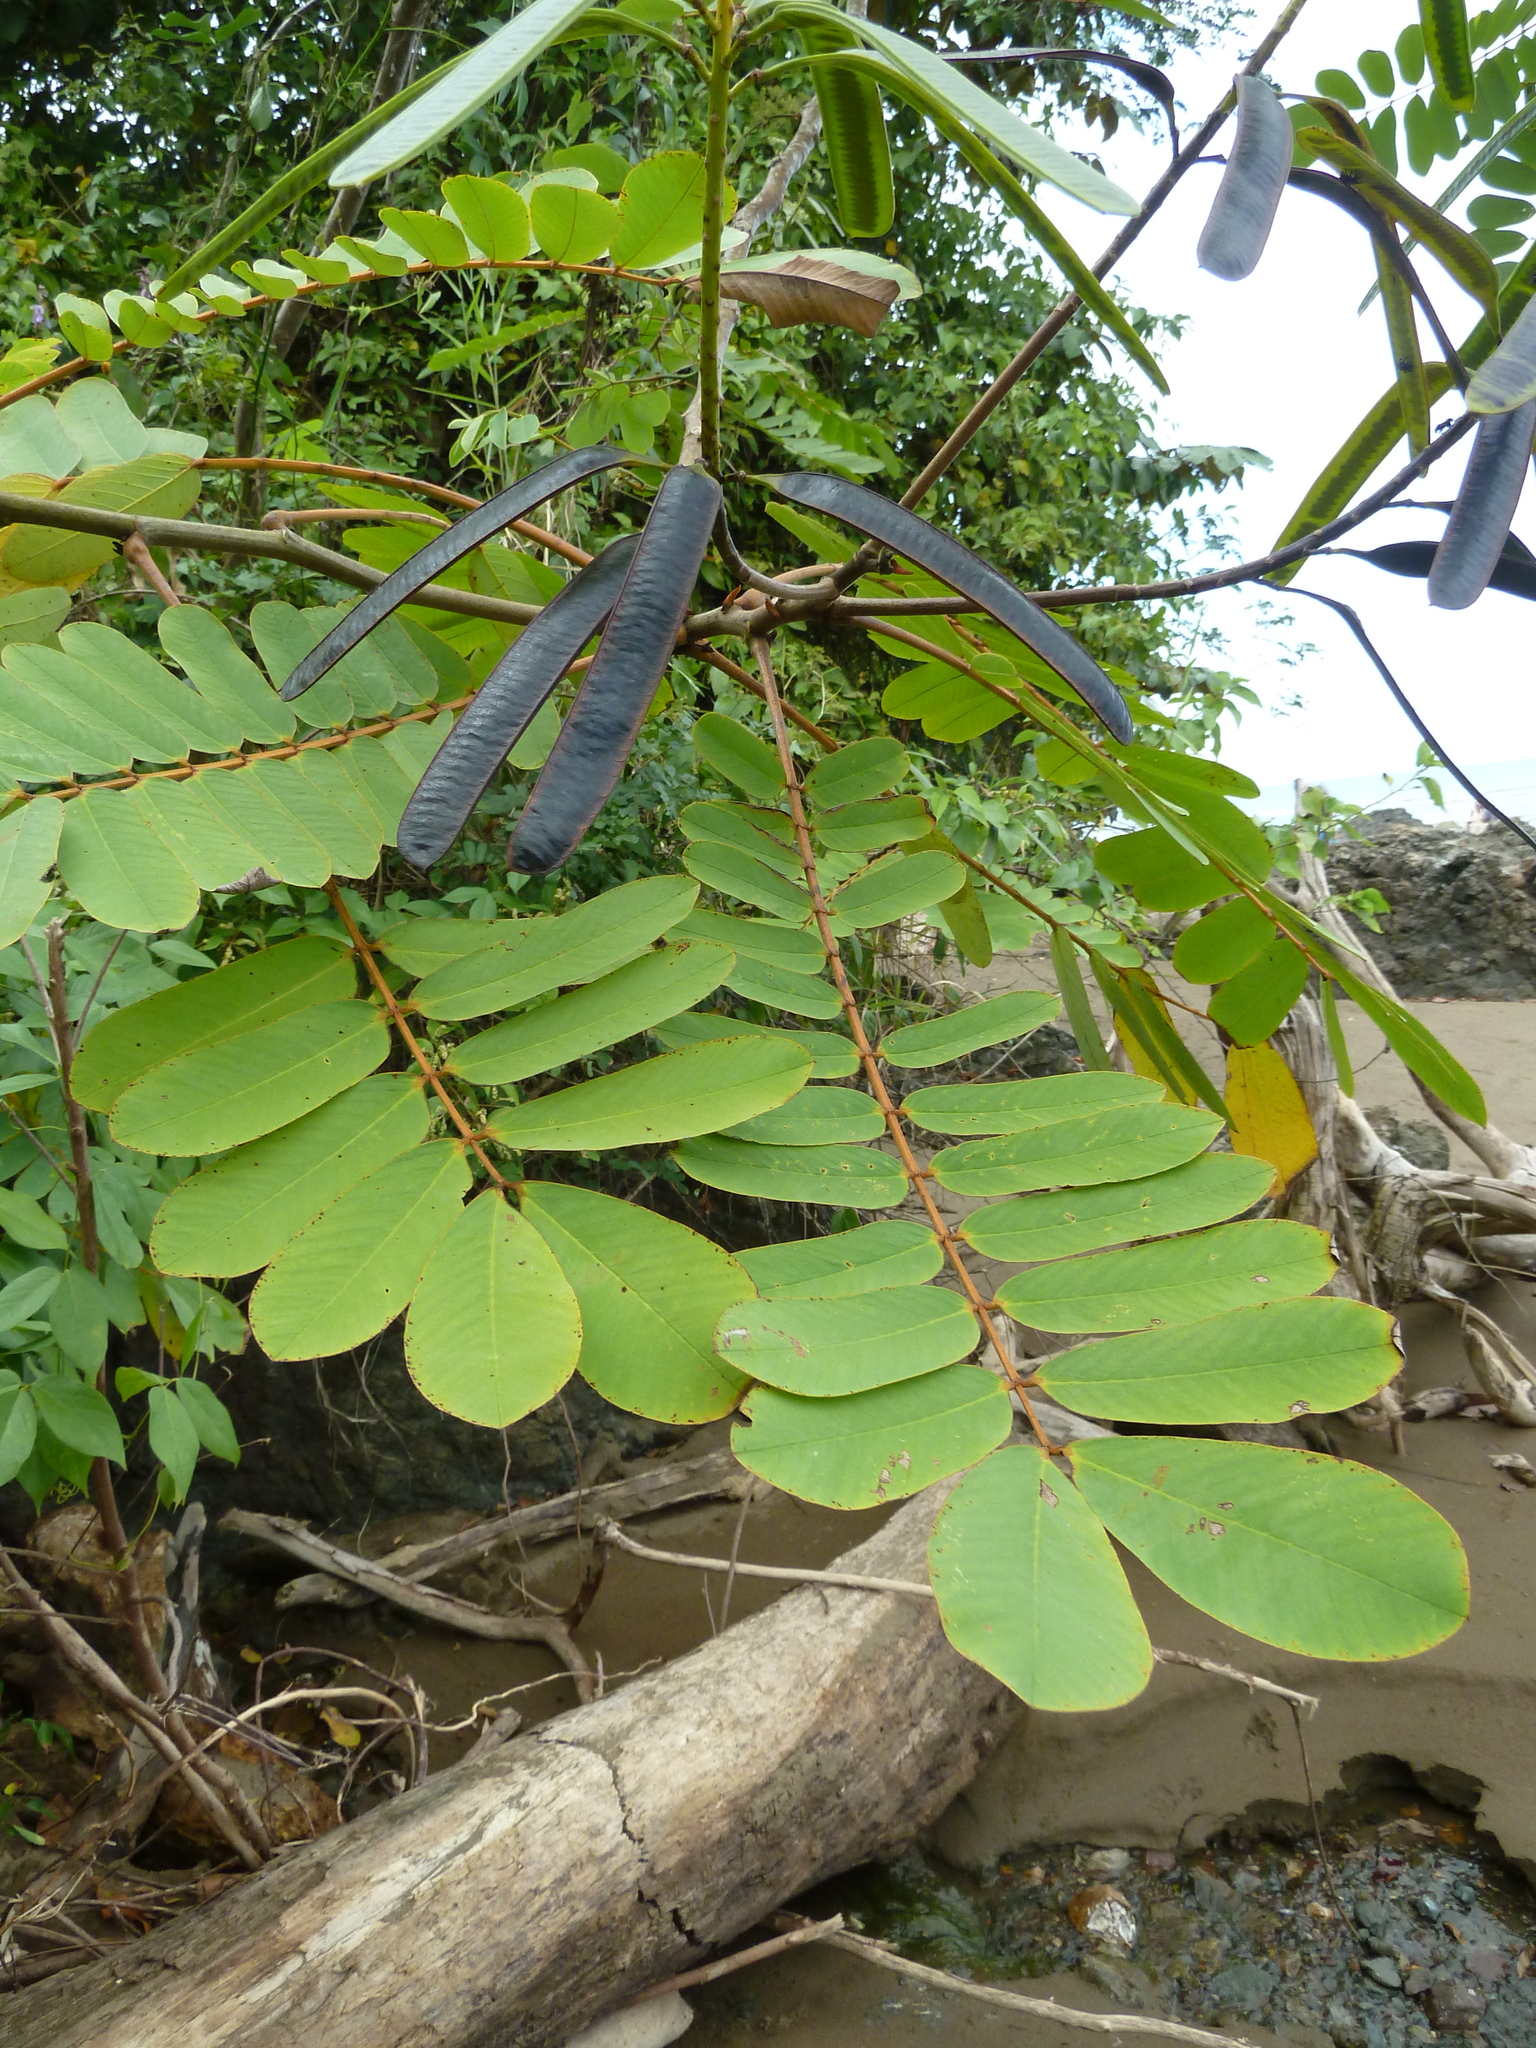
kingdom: Plantae
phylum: Tracheophyta
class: Magnoliopsida
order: Fabales
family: Fabaceae
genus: Senna
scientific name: Senna reticulata
